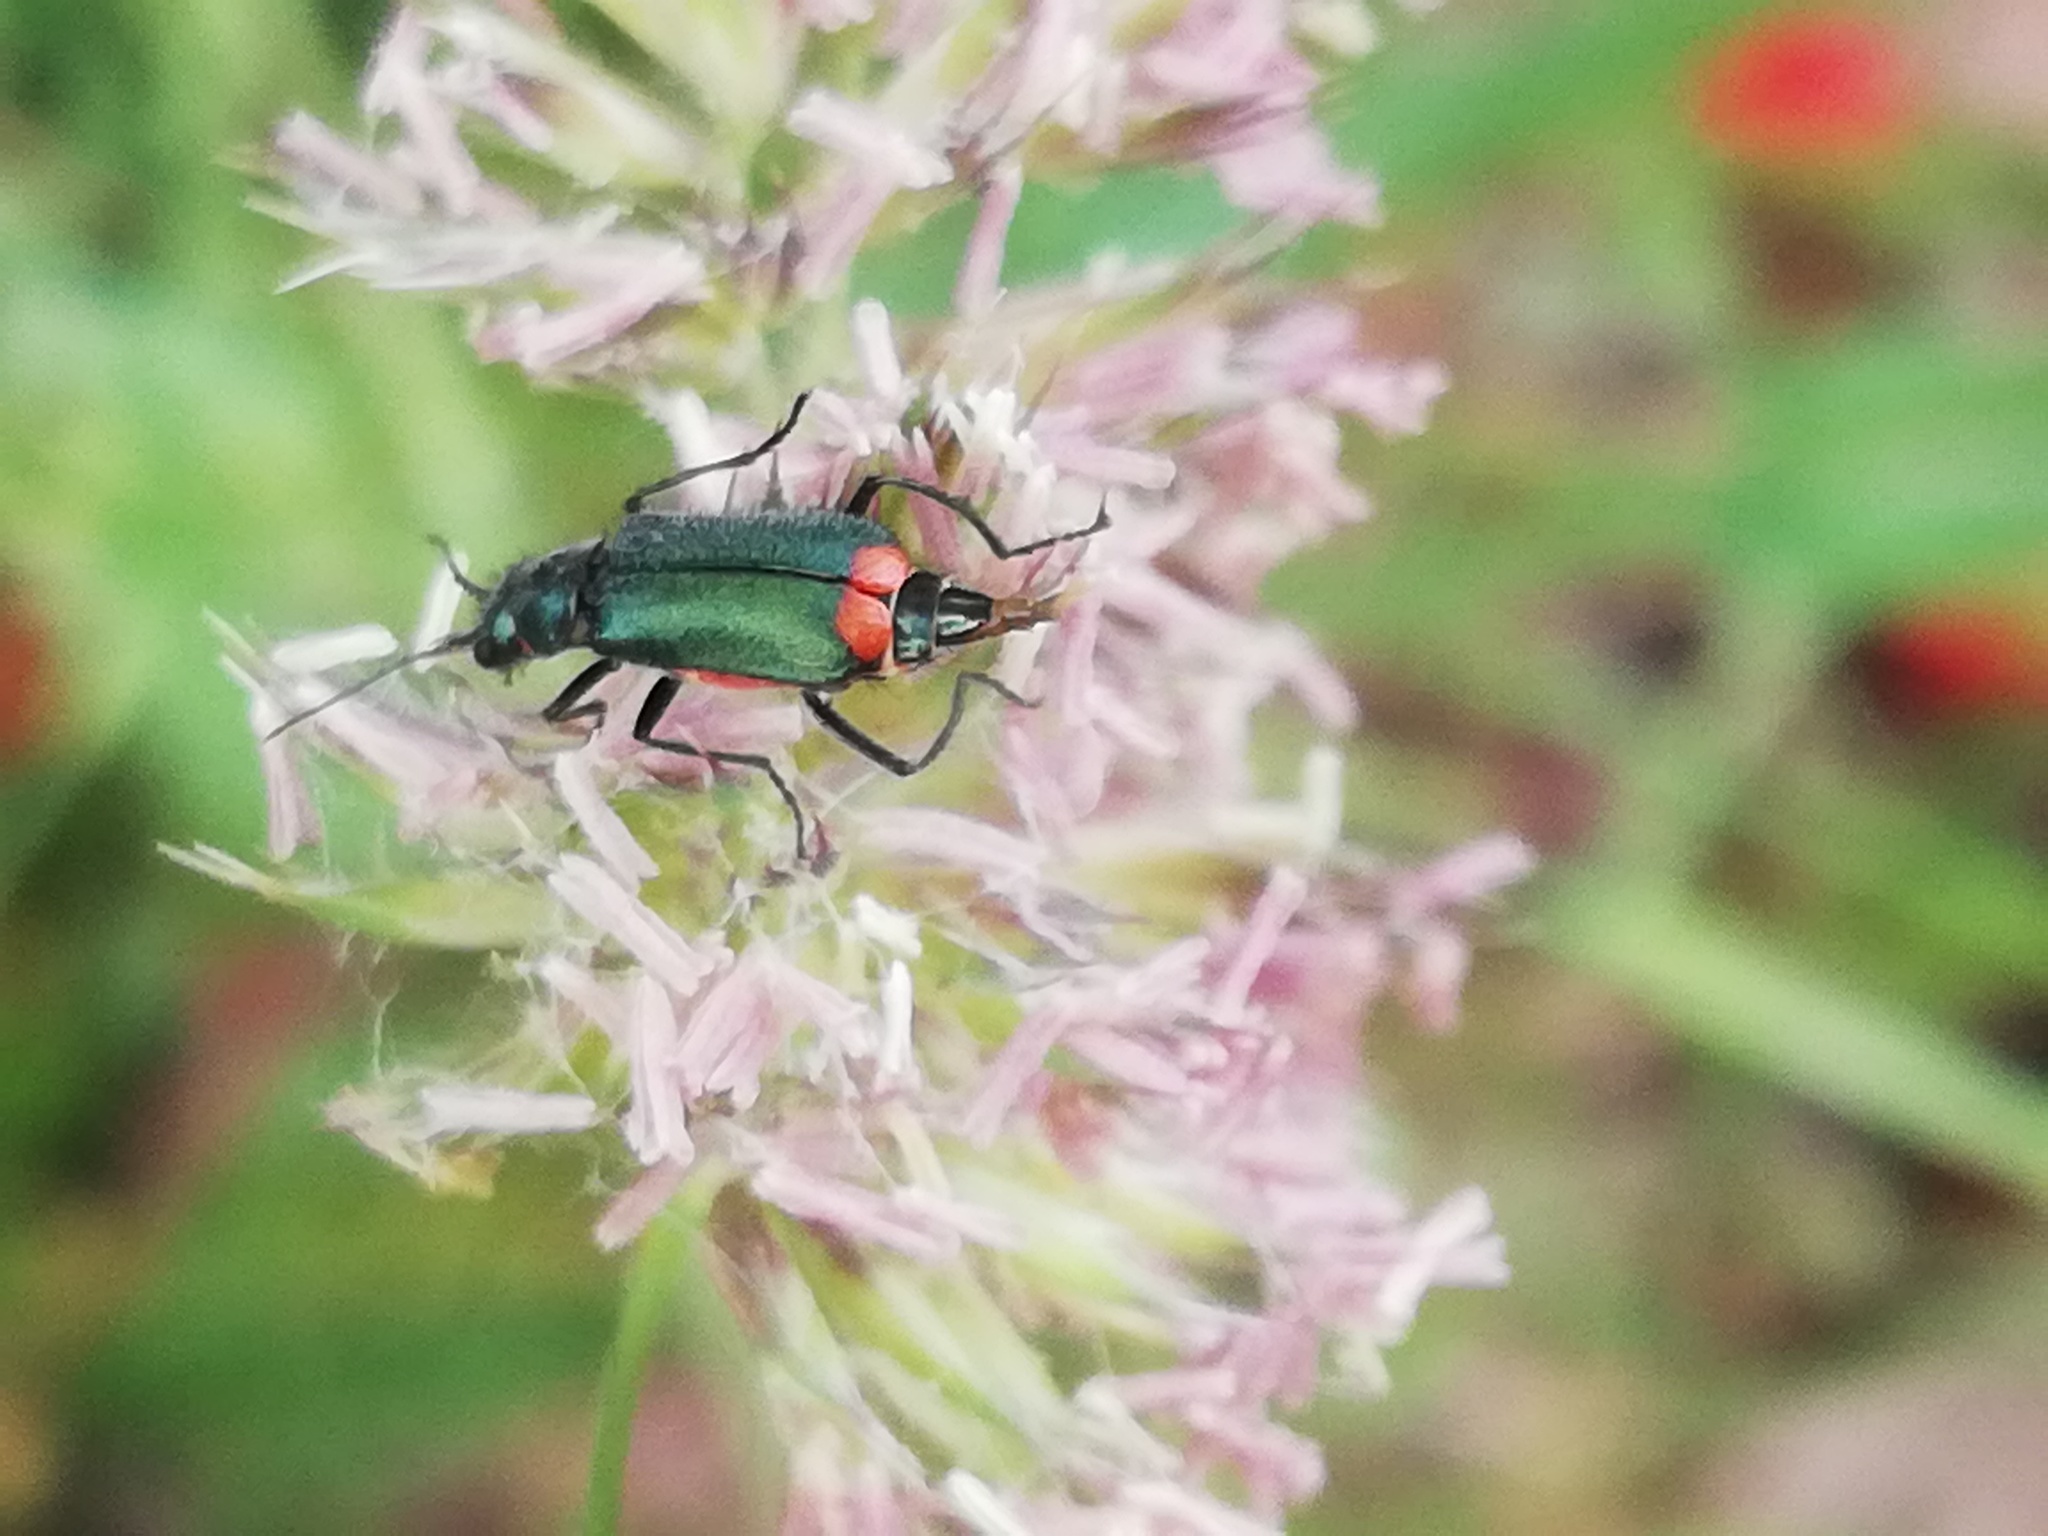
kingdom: Animalia
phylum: Arthropoda
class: Insecta
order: Coleoptera
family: Melyridae
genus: Malachius
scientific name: Malachius bipustulatus
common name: Malachite beetle
